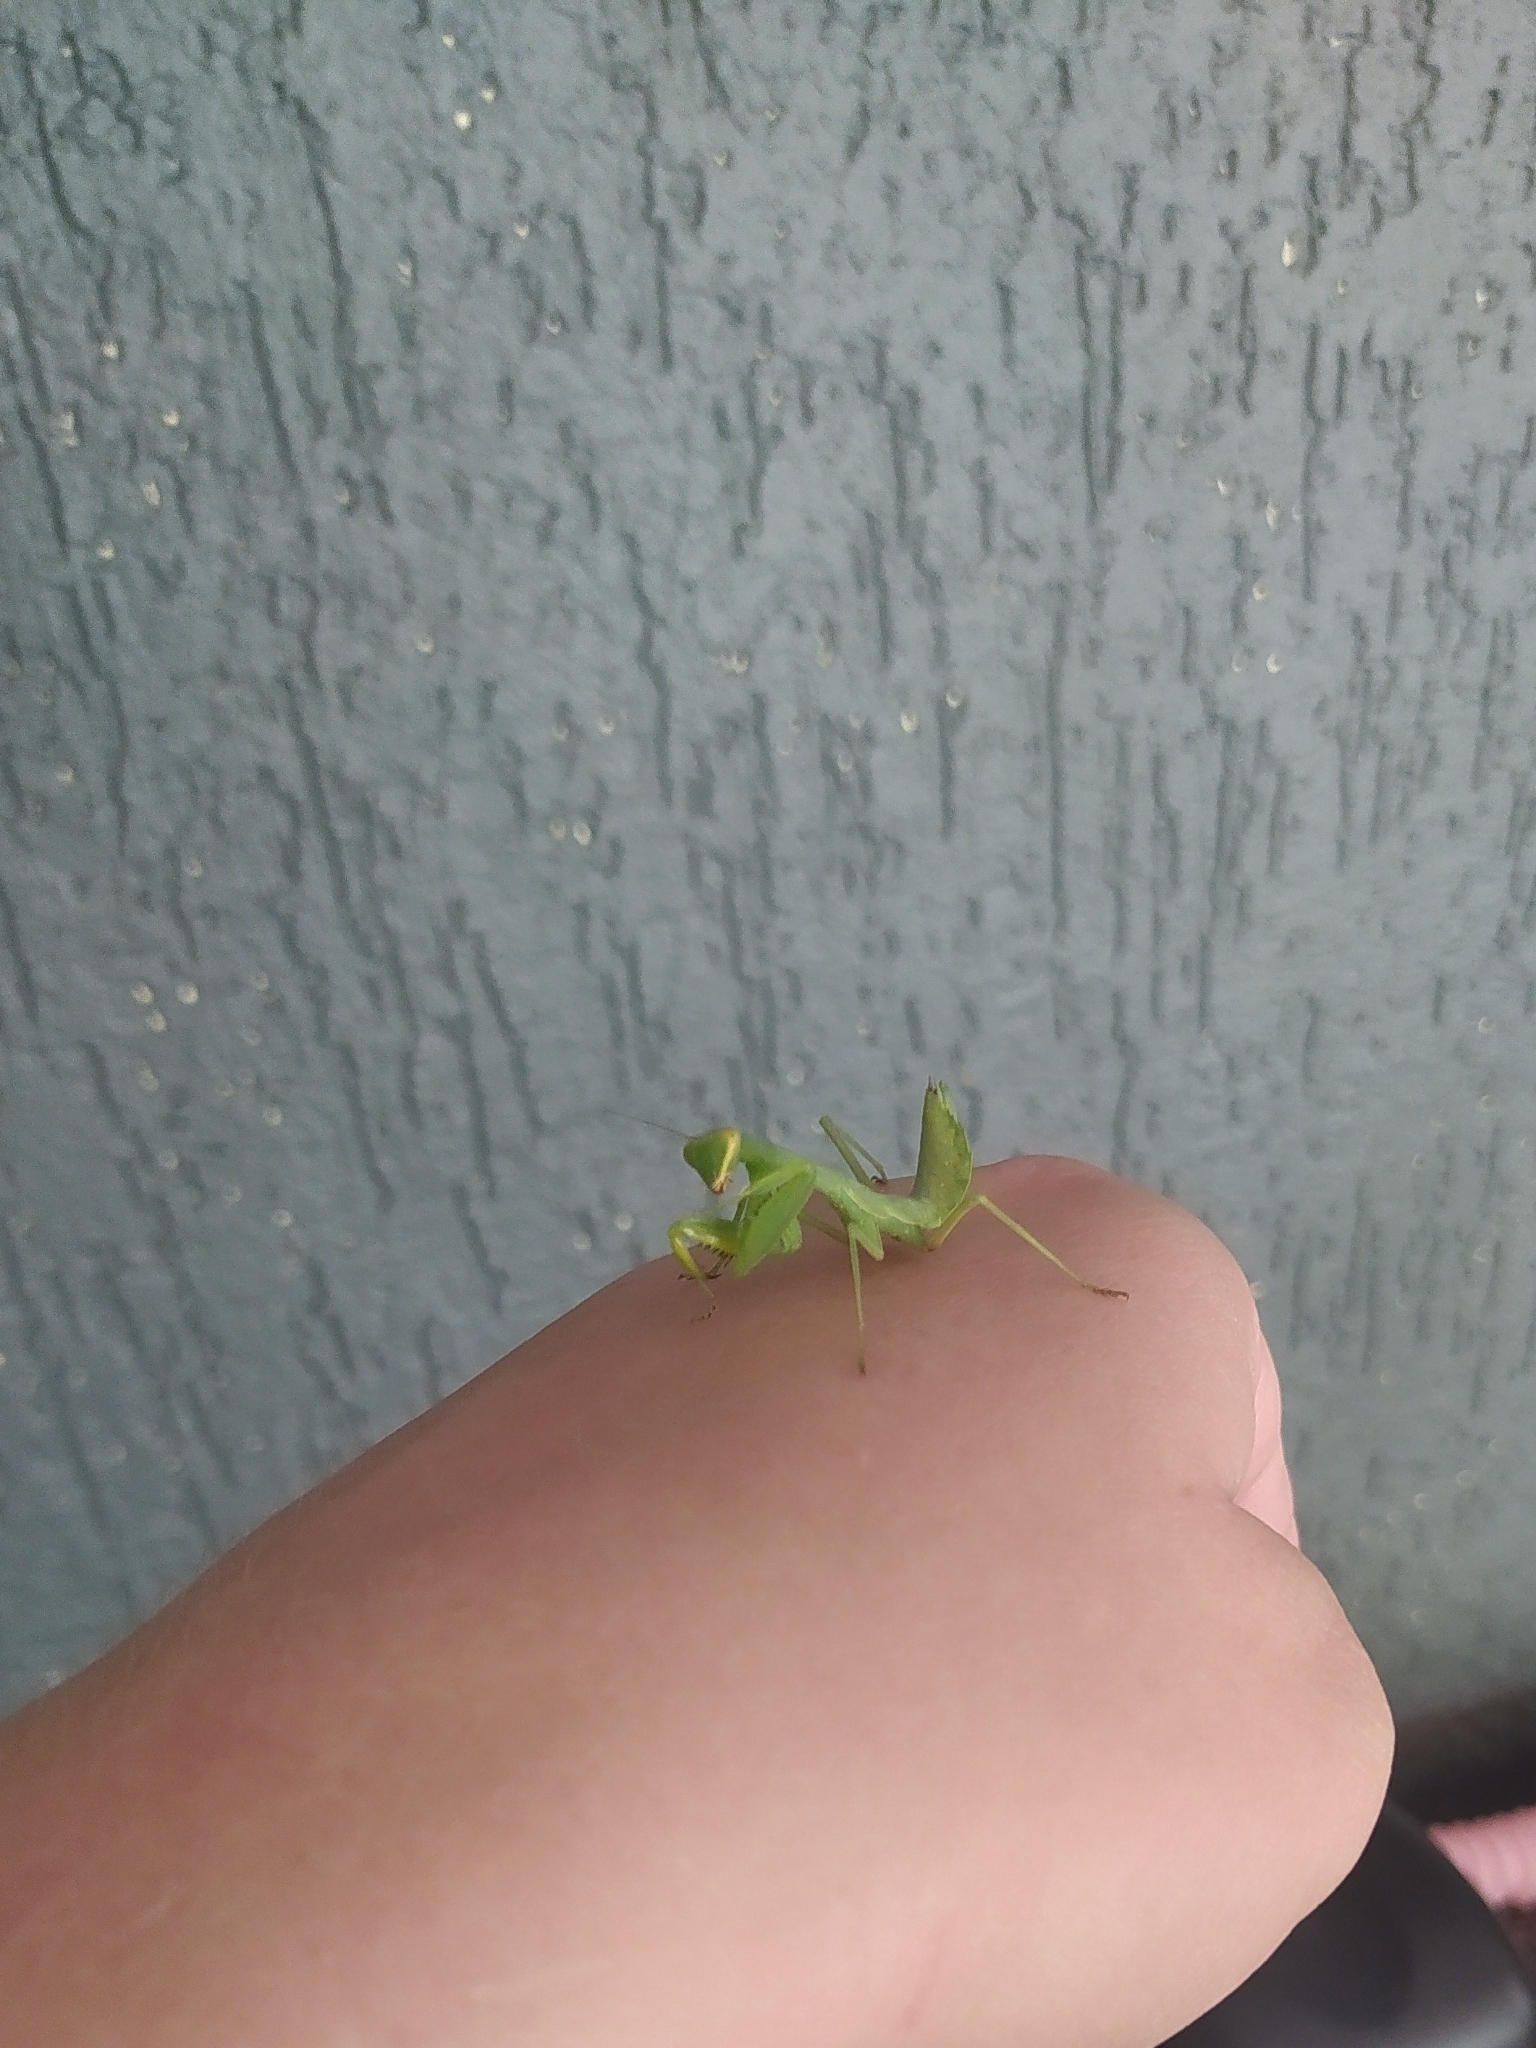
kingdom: Animalia
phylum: Arthropoda
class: Insecta
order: Mantodea
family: Mantidae
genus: Hierodula
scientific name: Hierodula transcaucasica
